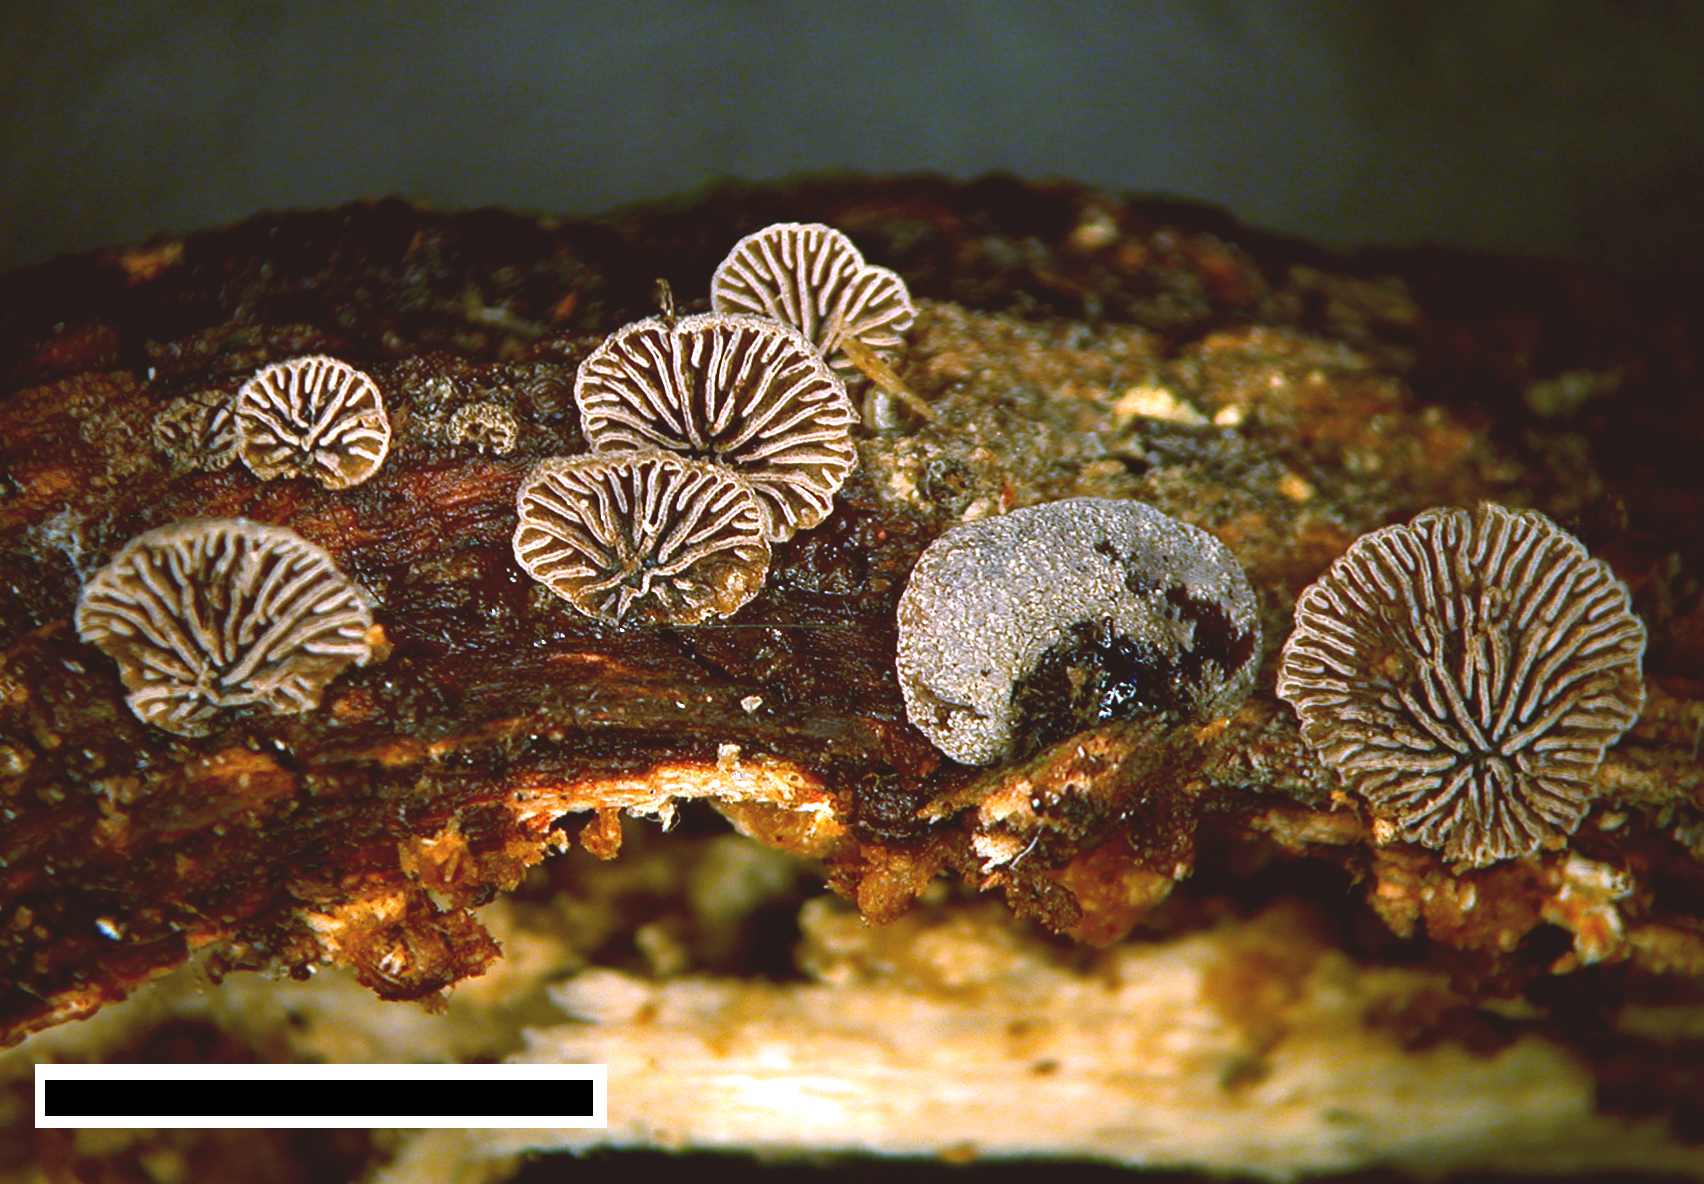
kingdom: Fungi
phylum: Basidiomycota
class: Agaricomycetes
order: Agaricales
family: Pleurotaceae
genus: Resupinatus
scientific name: Resupinatus trichotis
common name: Hairy oysterling
